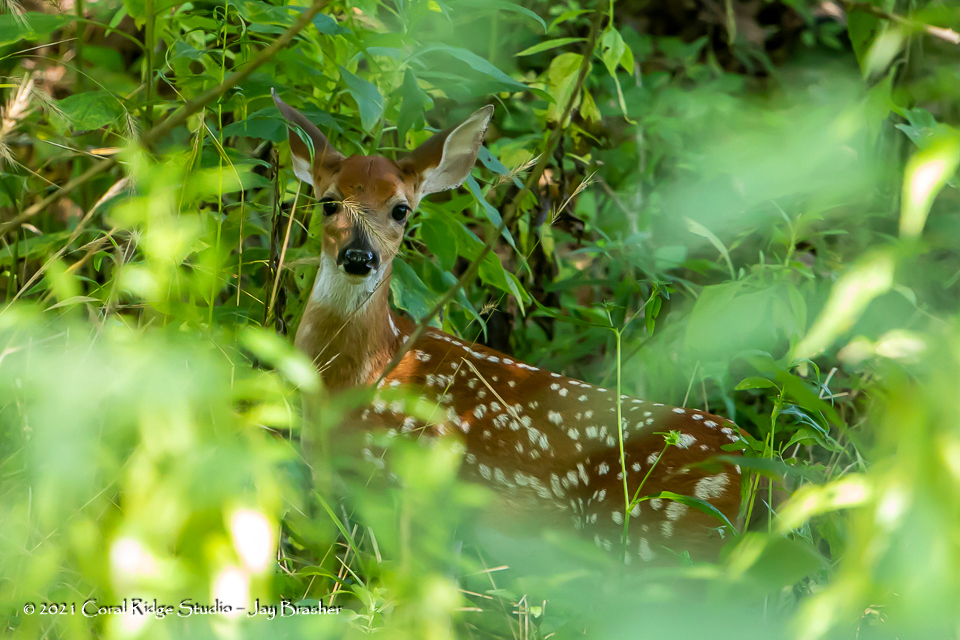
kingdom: Animalia
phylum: Chordata
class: Mammalia
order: Artiodactyla
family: Cervidae
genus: Odocoileus
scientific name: Odocoileus virginianus
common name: White-tailed deer
